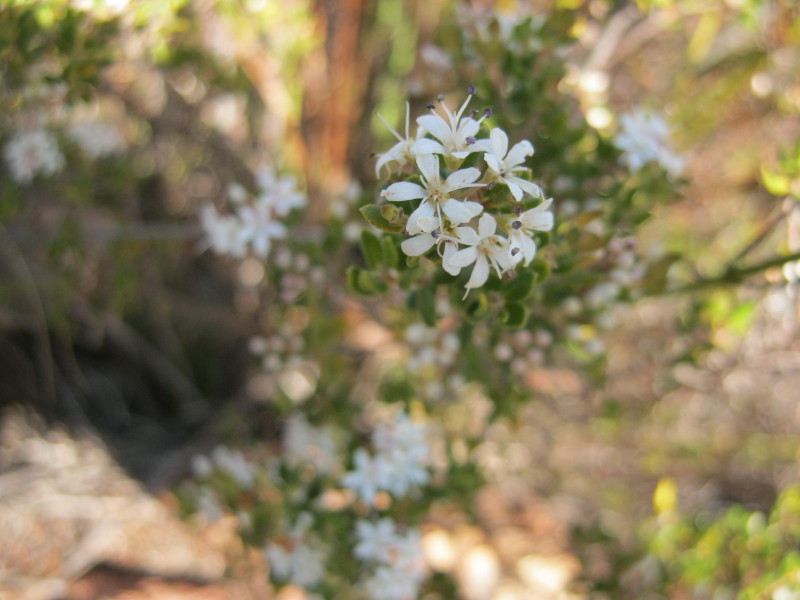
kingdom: Plantae
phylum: Tracheophyta
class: Magnoliopsida
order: Sapindales
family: Rutaceae
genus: Agathosma
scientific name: Agathosma mundtii
